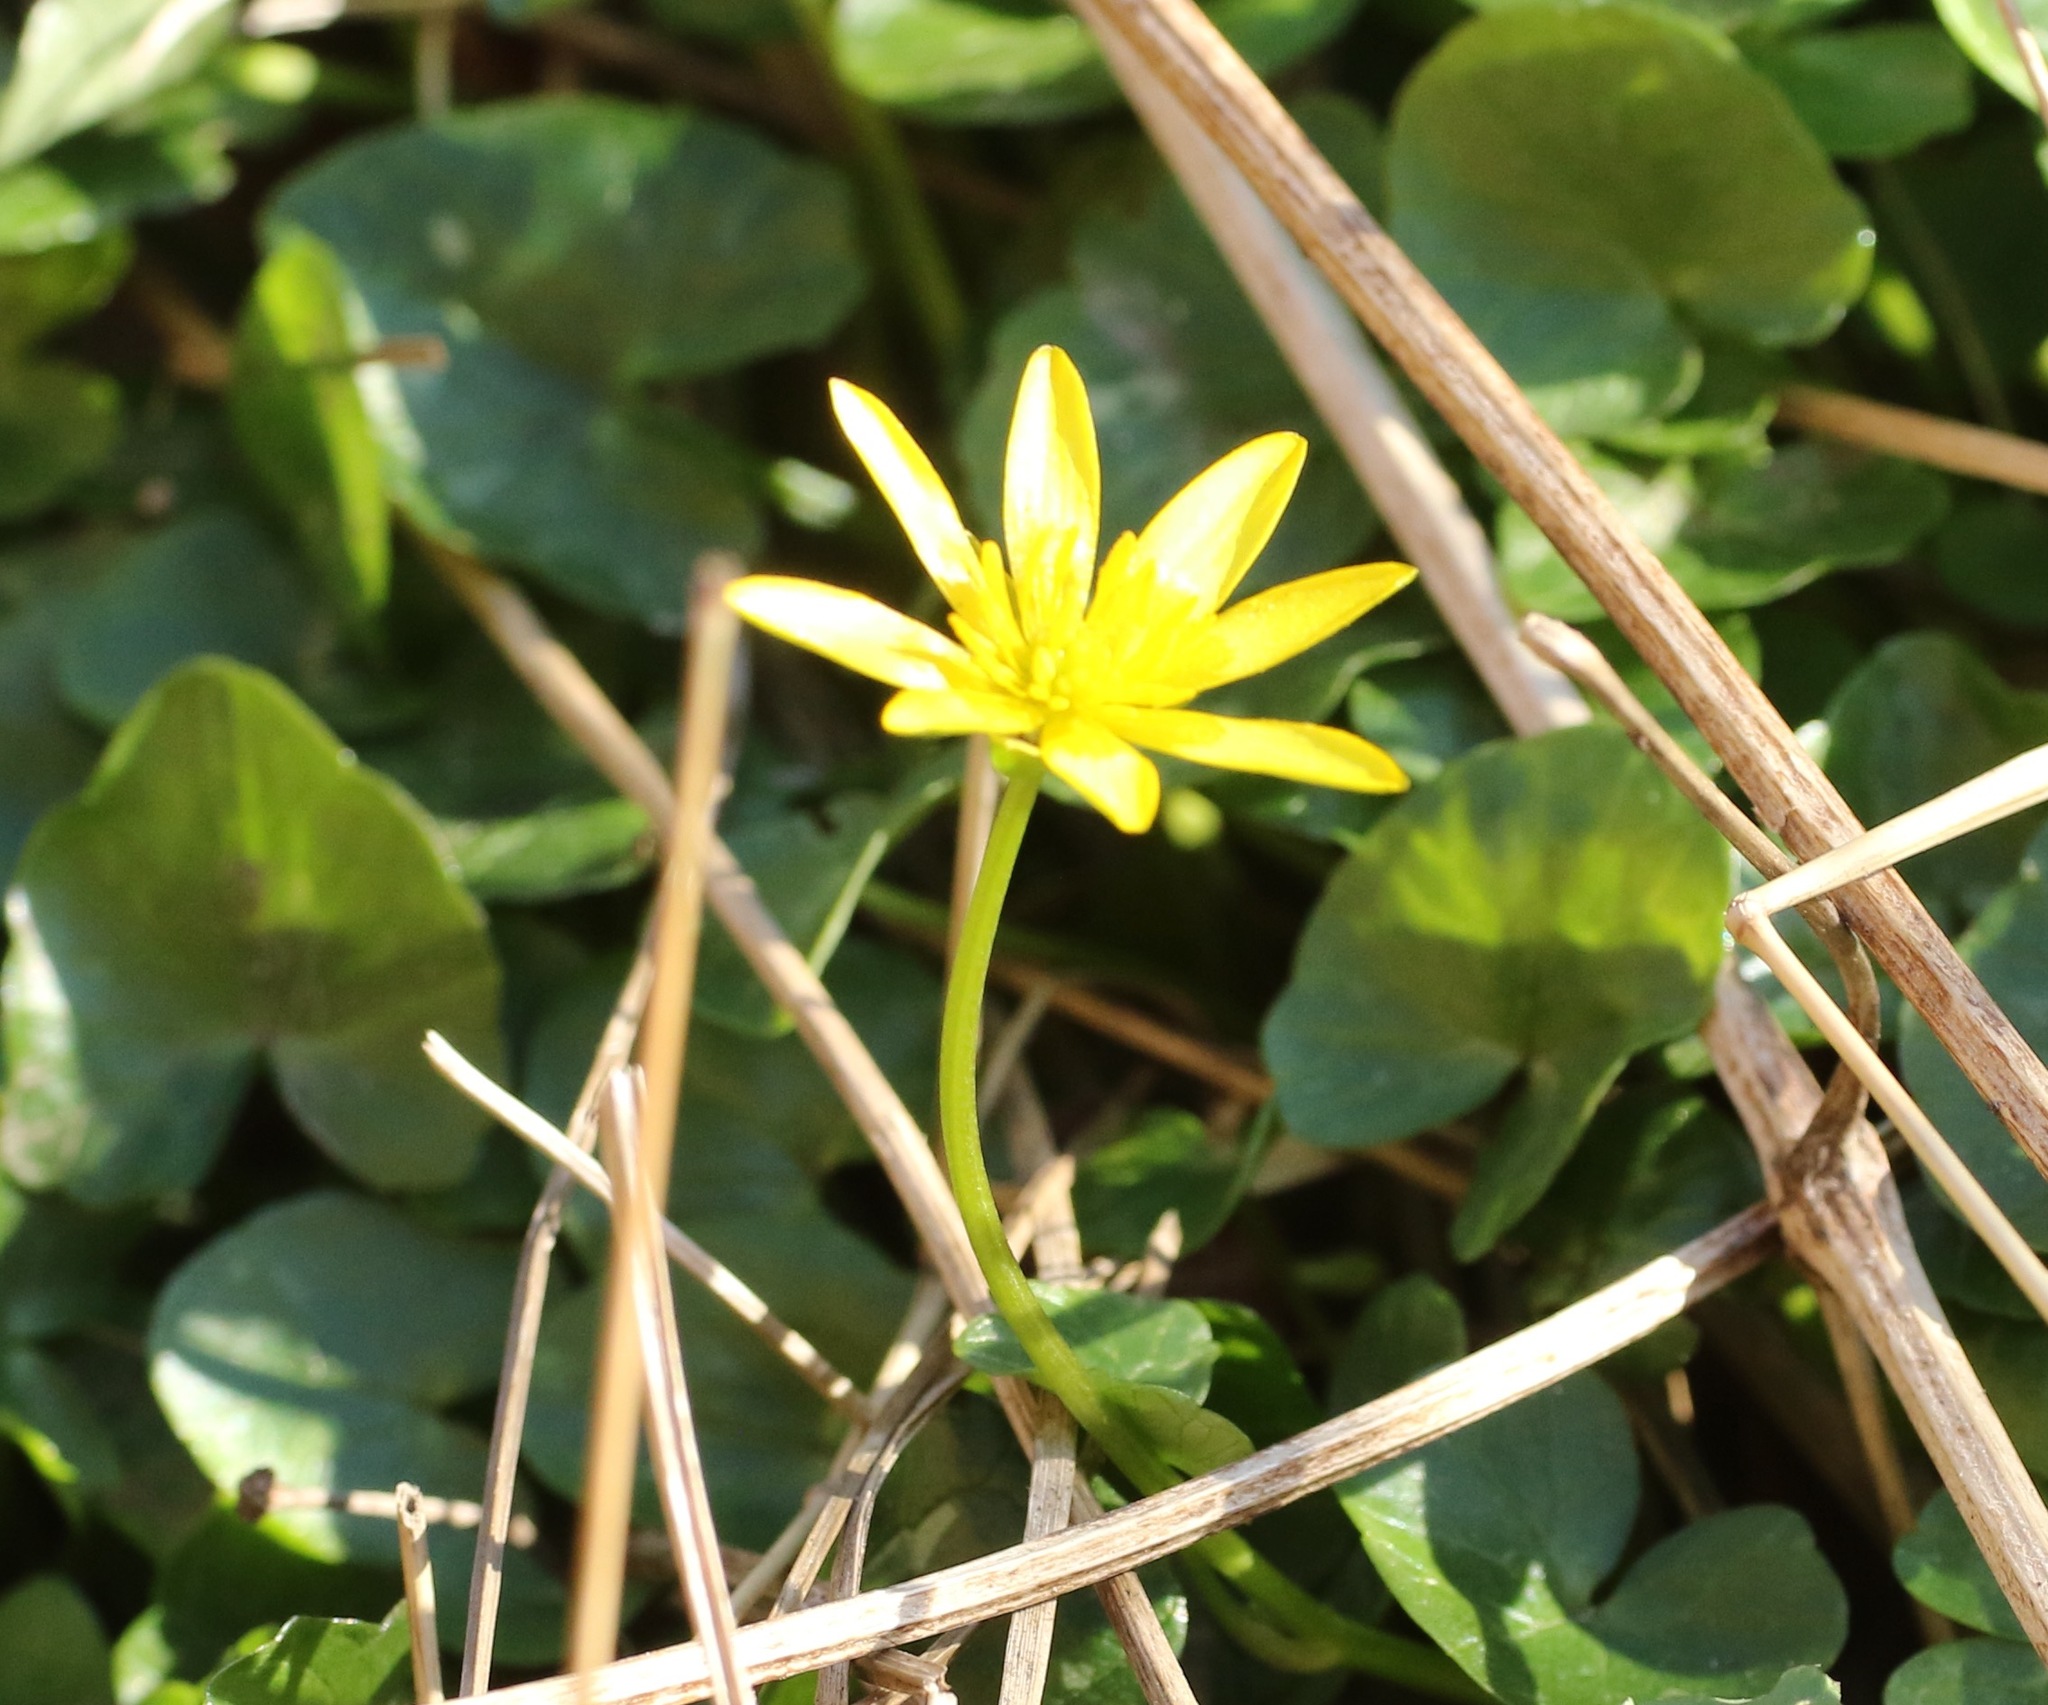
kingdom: Plantae
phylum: Tracheophyta
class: Magnoliopsida
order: Ranunculales
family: Ranunculaceae
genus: Ficaria
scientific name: Ficaria verna
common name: Lesser celandine
